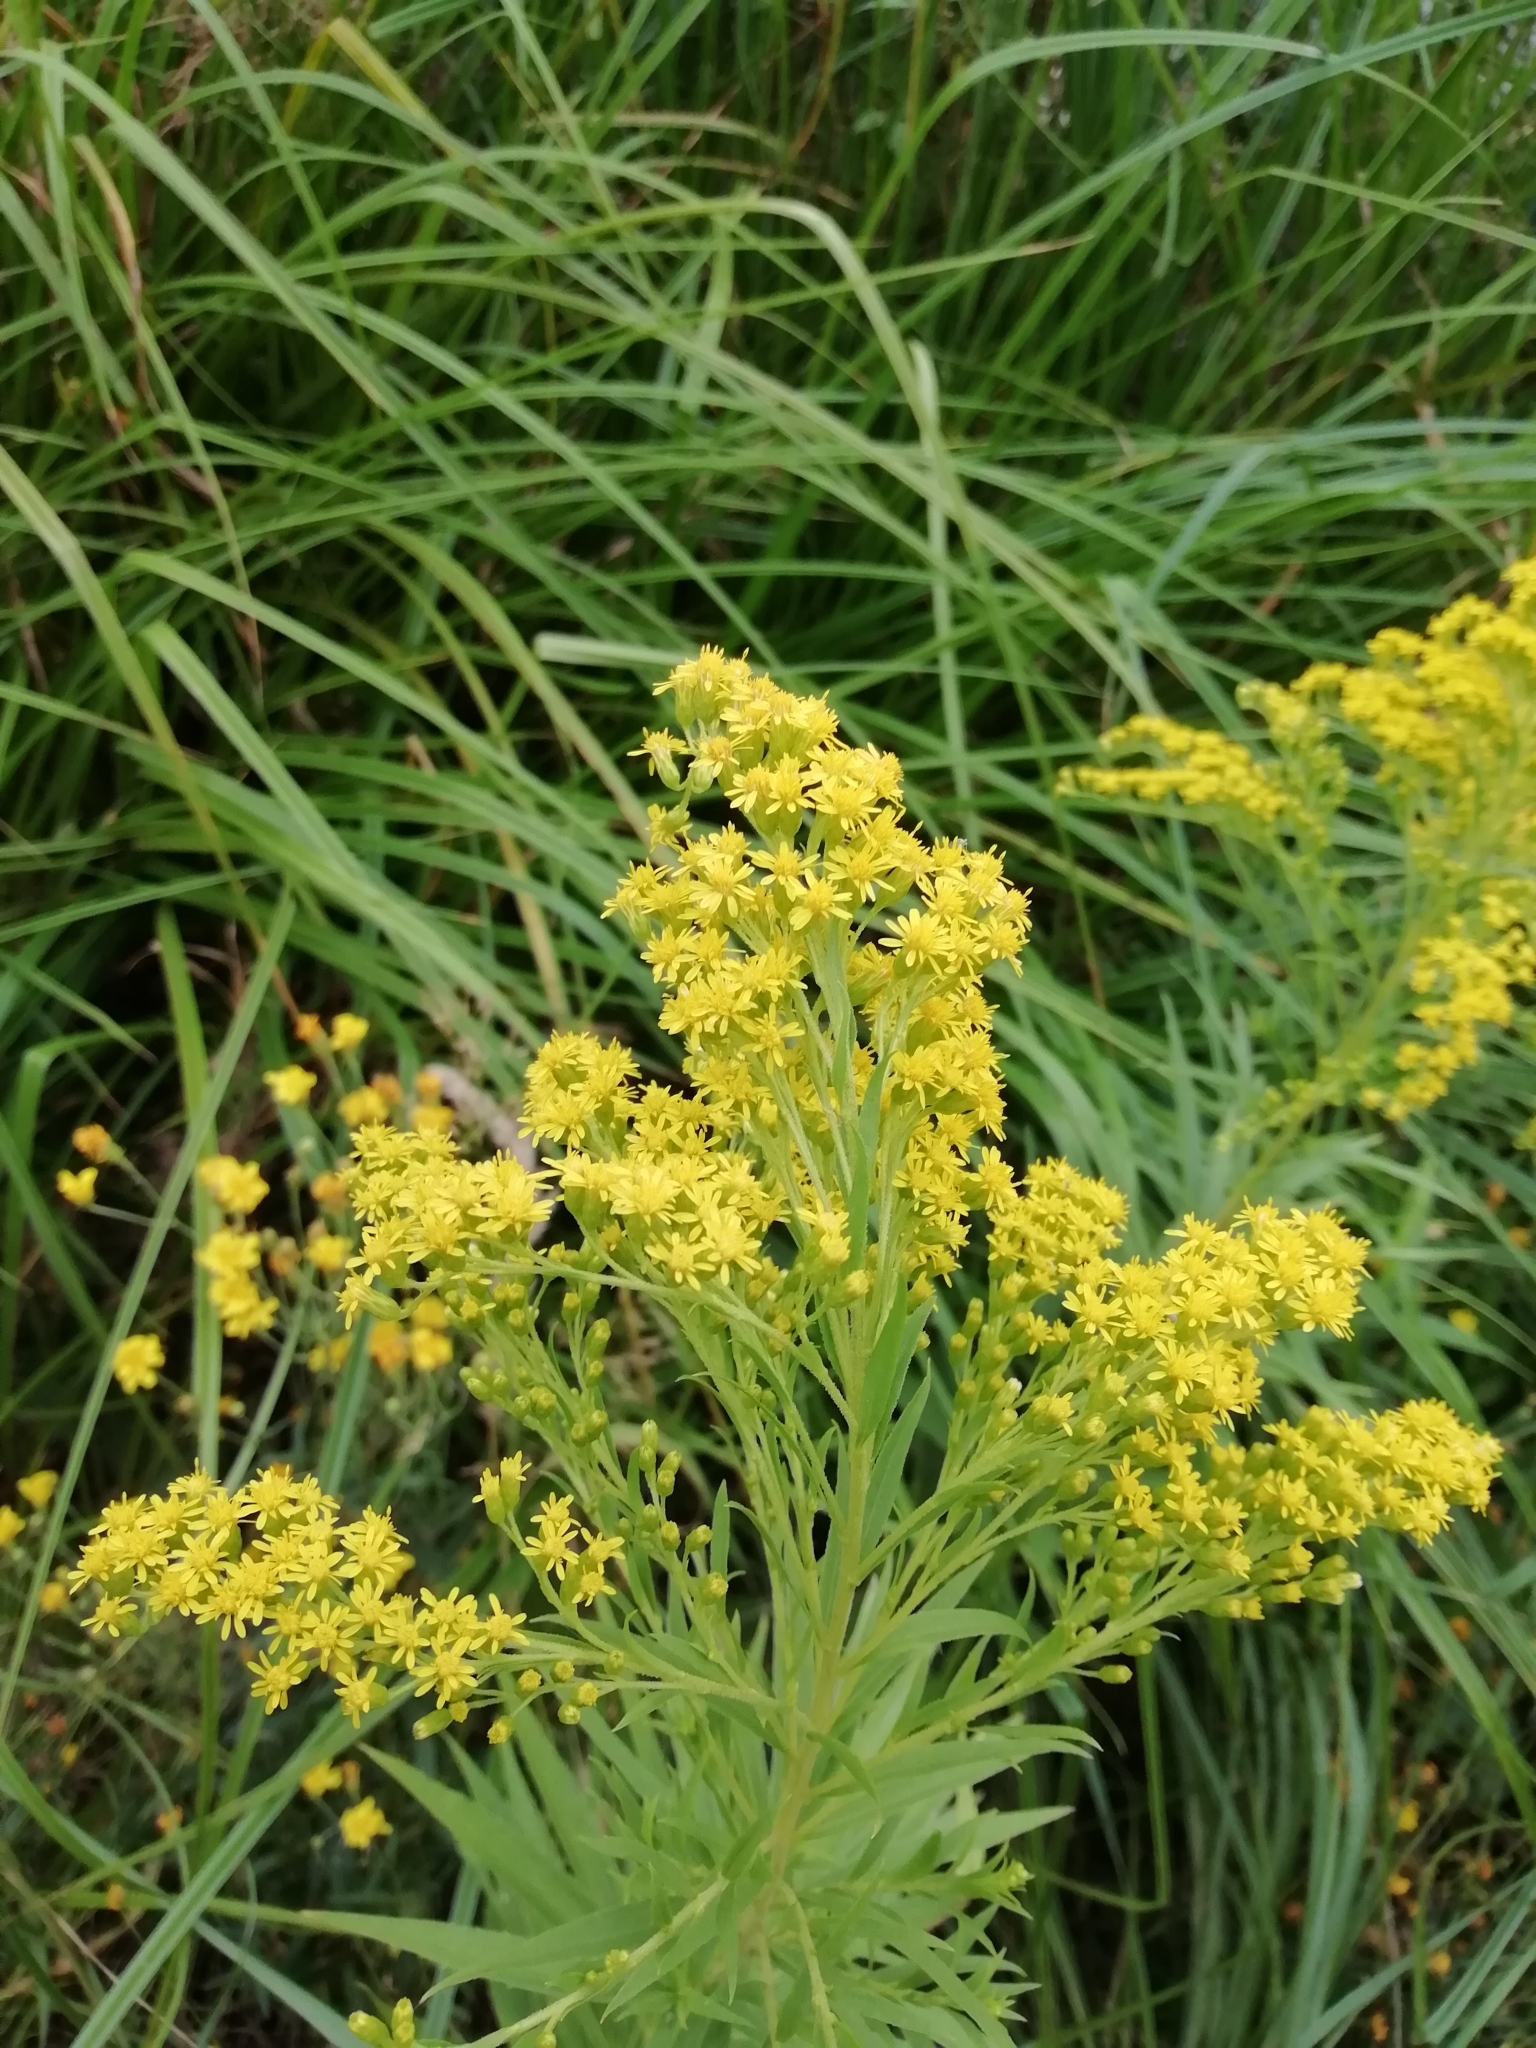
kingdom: Plantae
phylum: Tracheophyta
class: Magnoliopsida
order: Asterales
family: Asteraceae
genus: Solidago
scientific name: Solidago canadensis
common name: Canada goldenrod
